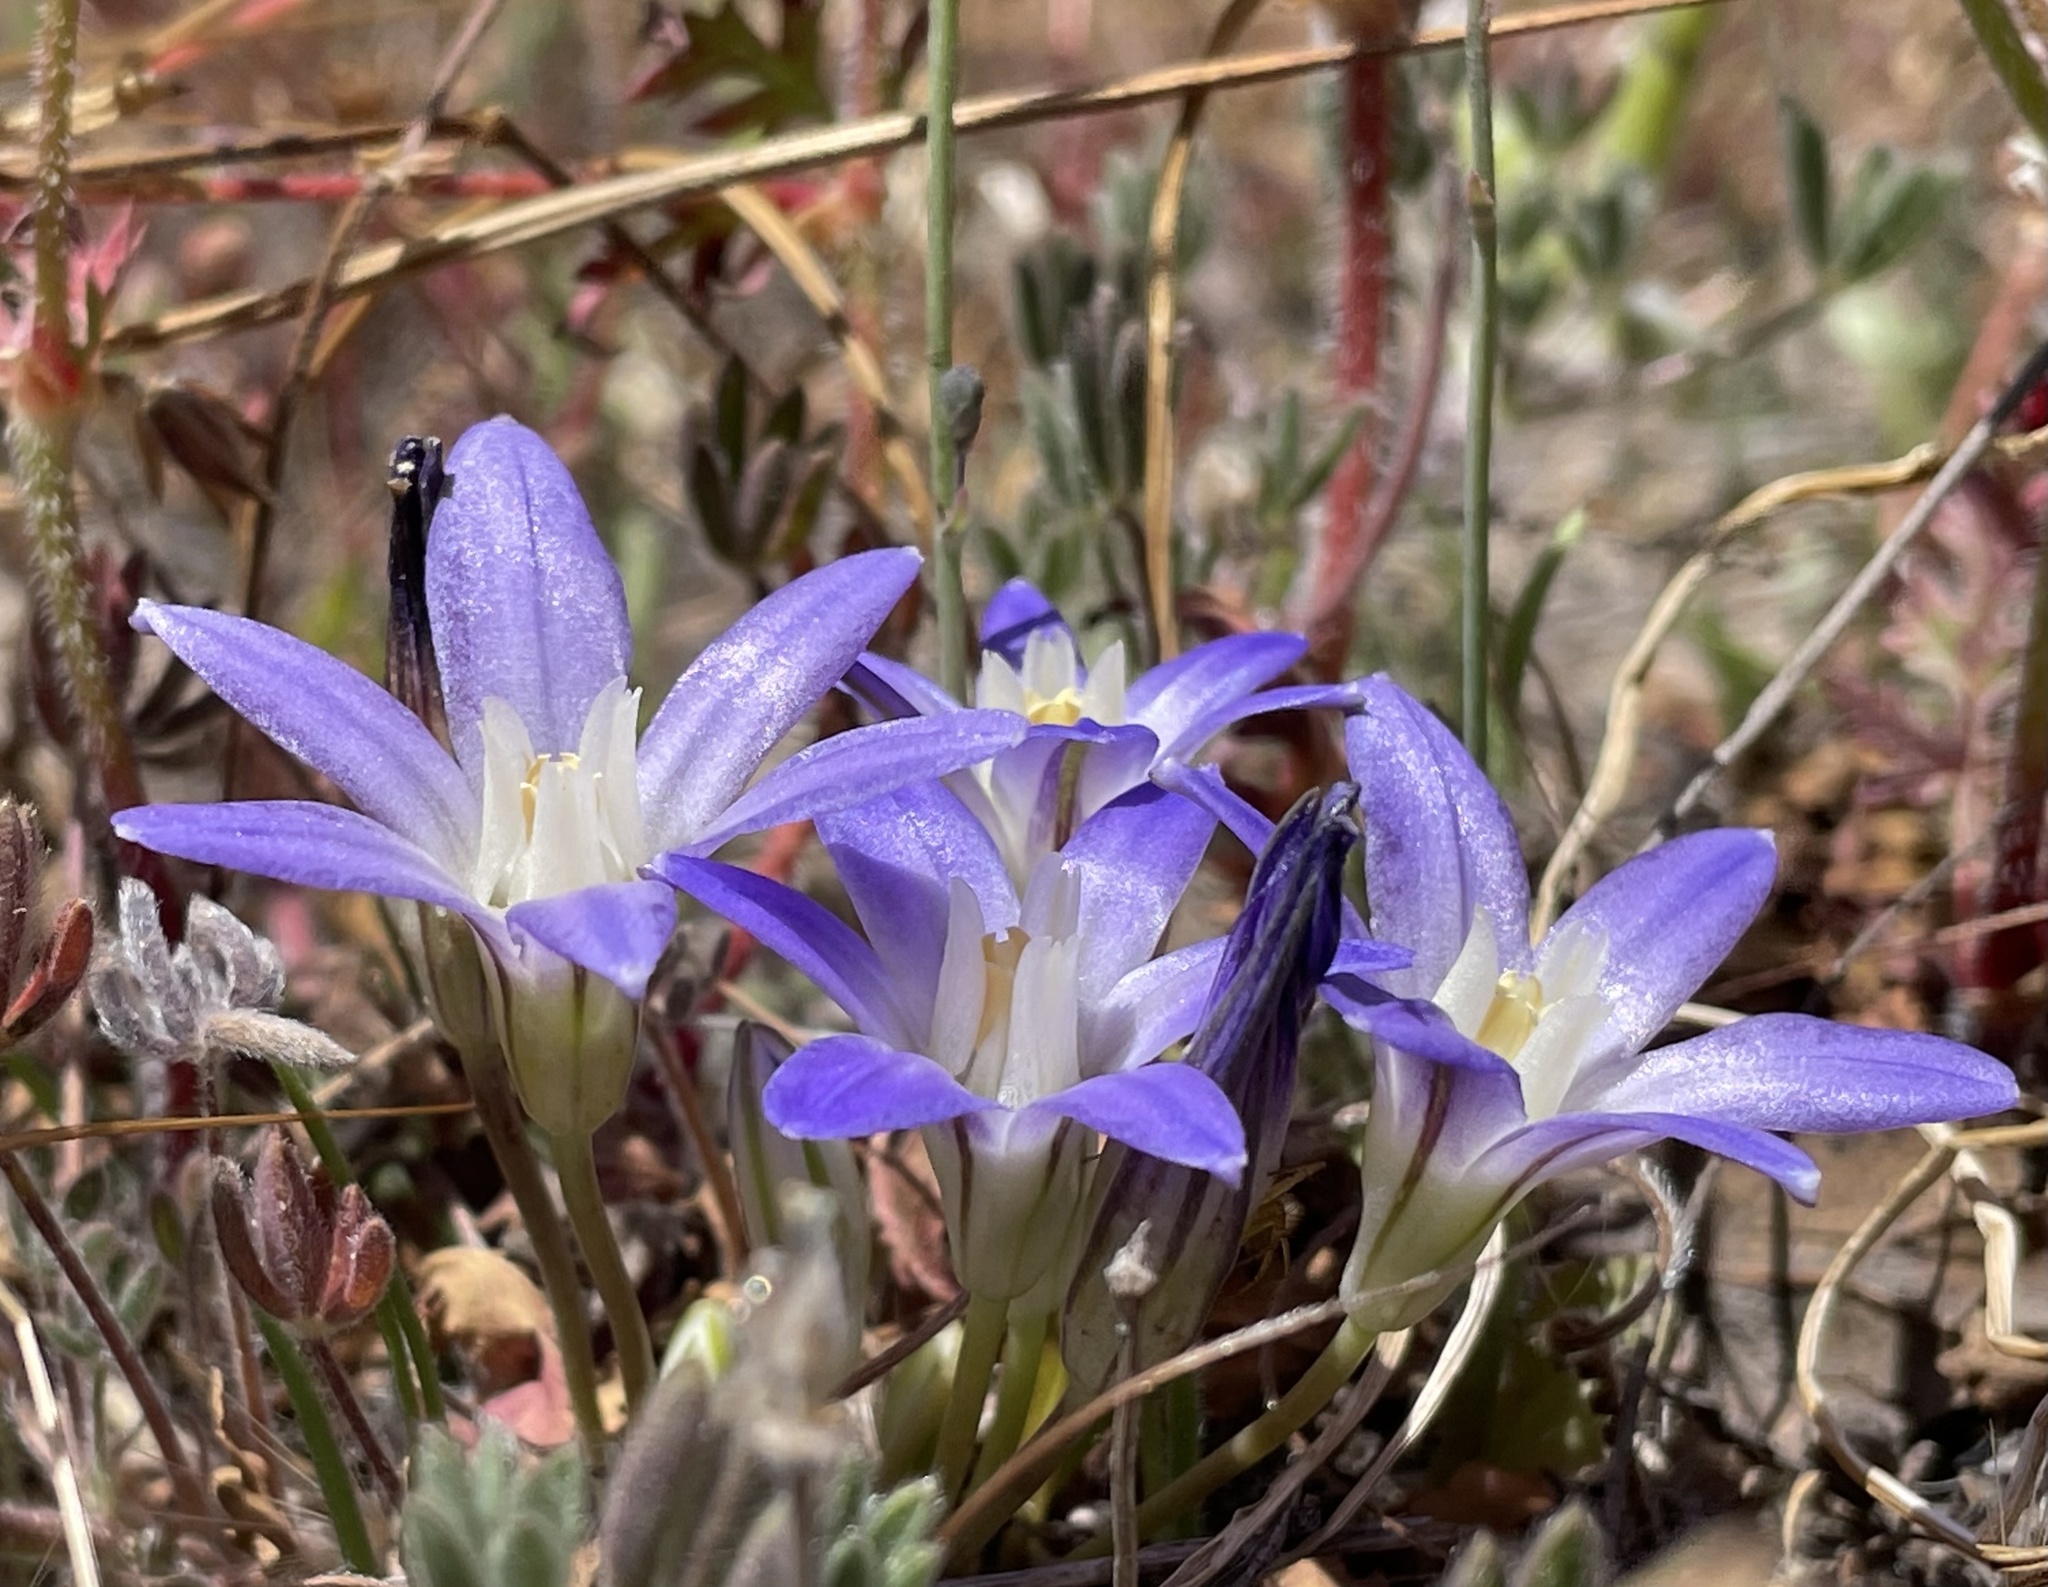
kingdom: Plantae
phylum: Tracheophyta
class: Liliopsida
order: Asparagales
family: Asparagaceae
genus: Brodiaea
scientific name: Brodiaea terrestris
